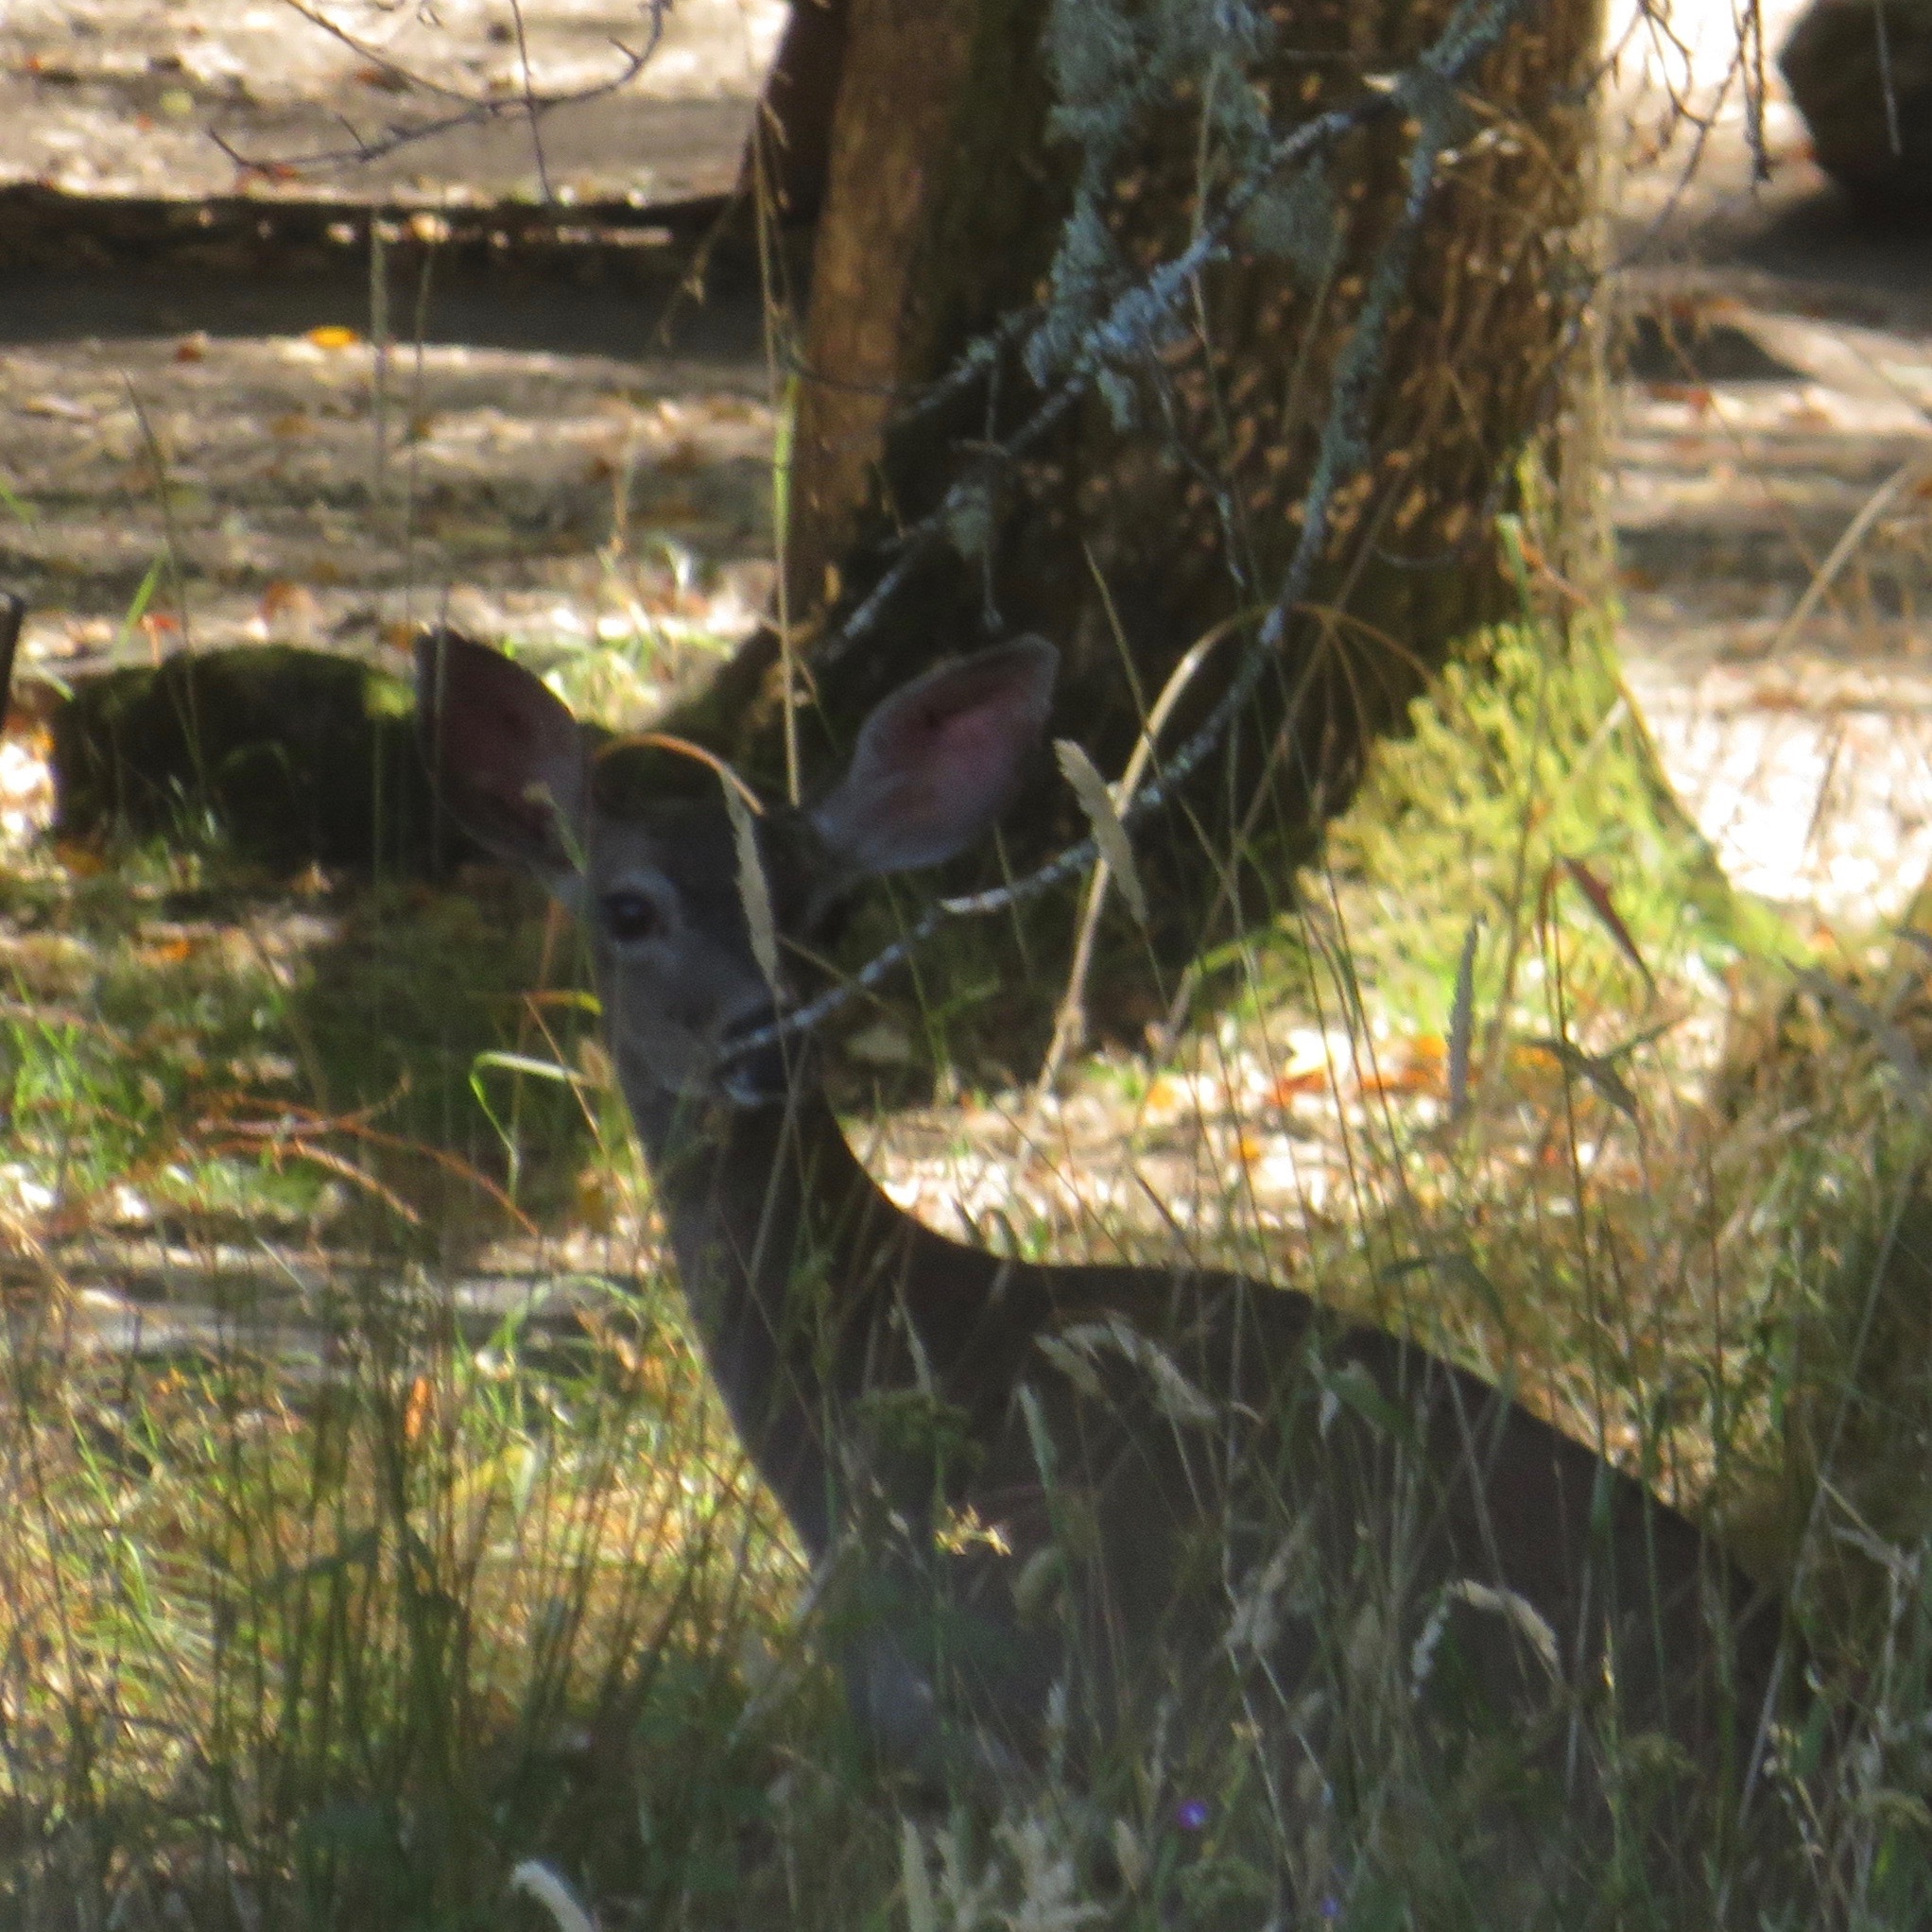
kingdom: Animalia
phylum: Chordata
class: Mammalia
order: Artiodactyla
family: Cervidae
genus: Odocoileus
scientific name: Odocoileus hemionus
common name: Mule deer
